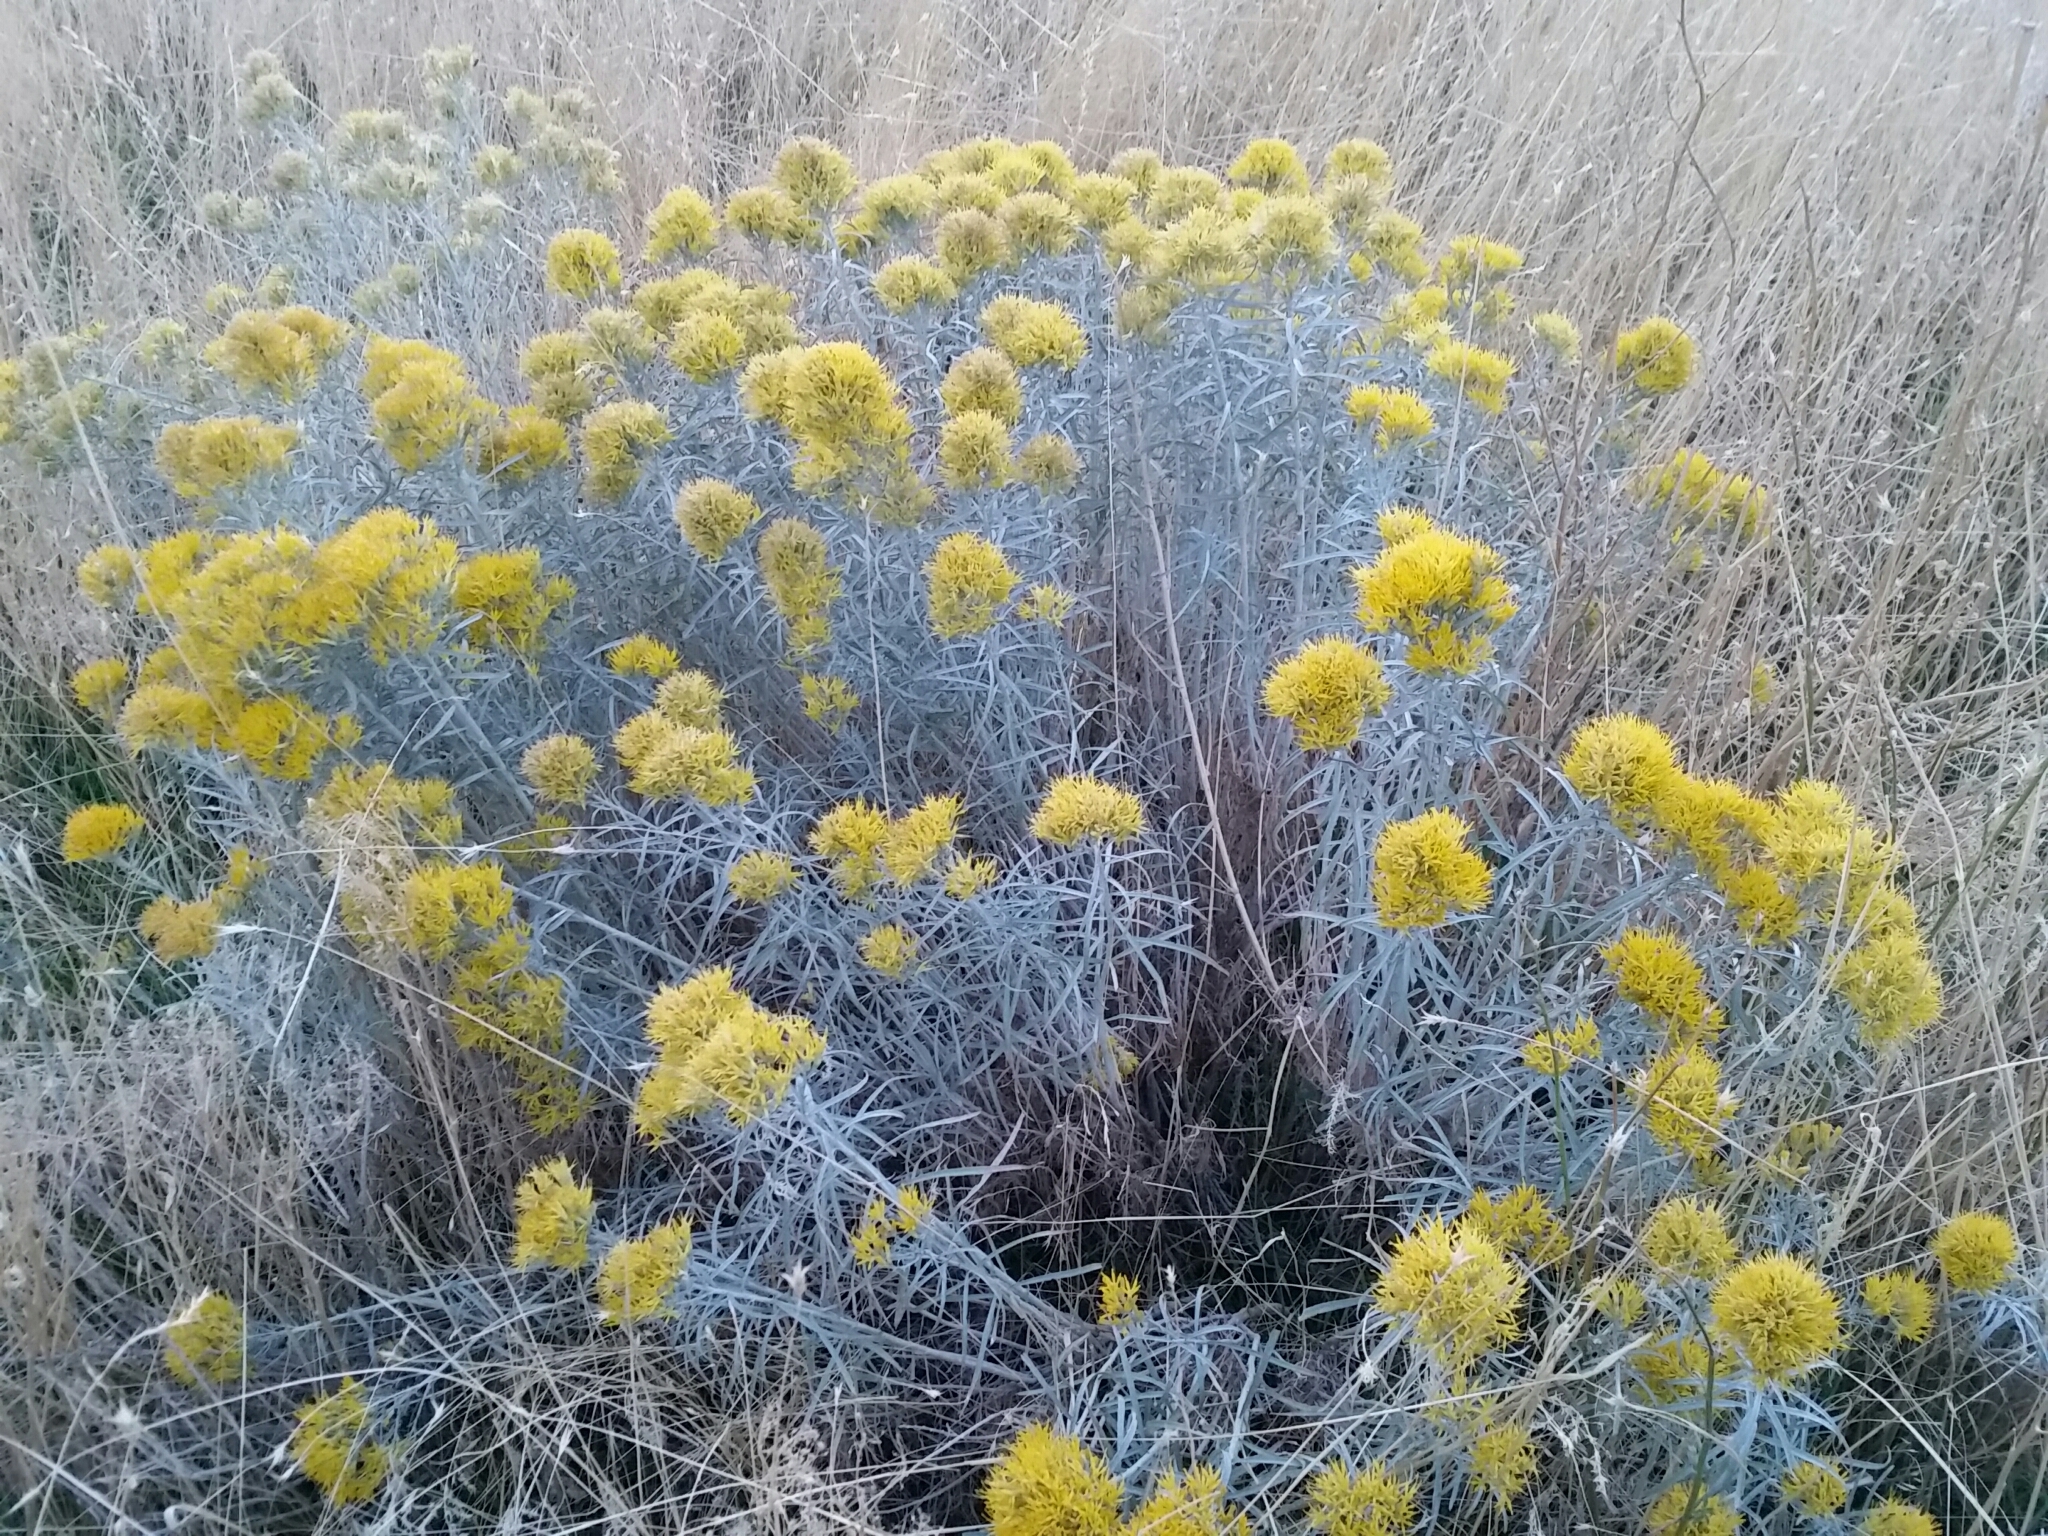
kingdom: Plantae
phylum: Tracheophyta
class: Magnoliopsida
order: Asterales
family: Asteraceae
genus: Ericameria
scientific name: Ericameria nauseosa
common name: Rubber rabbitbrush
